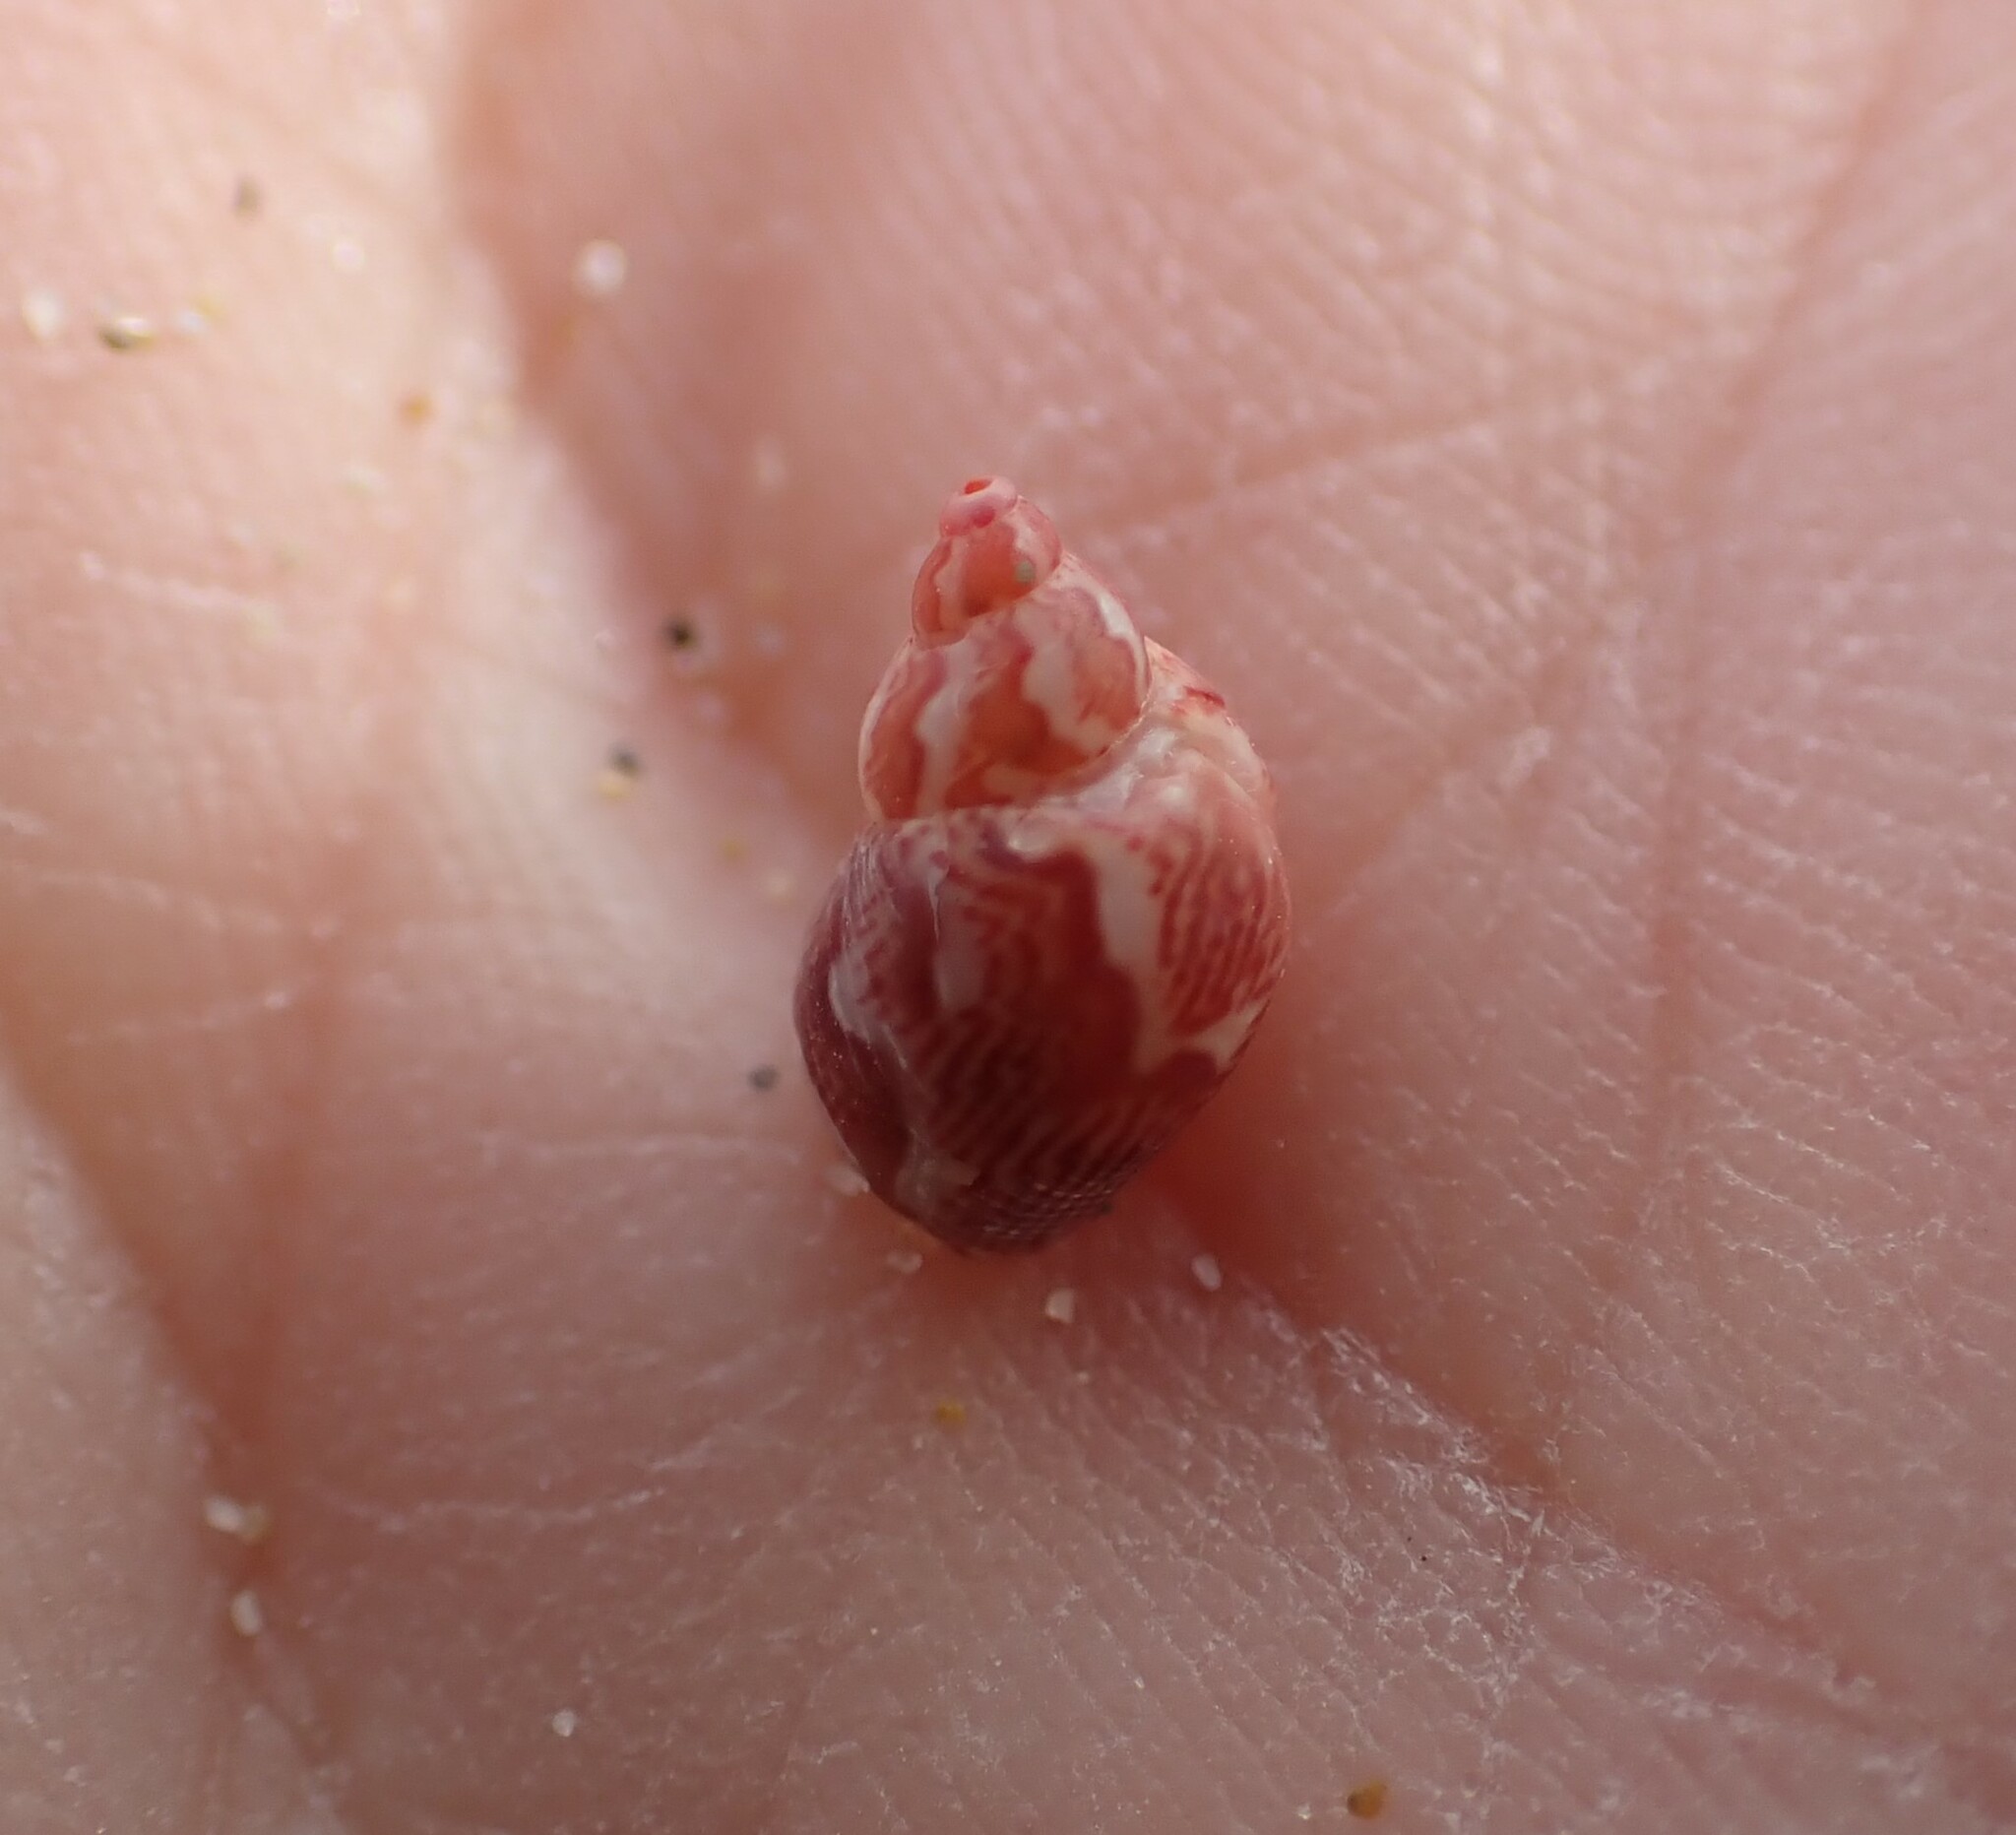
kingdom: Animalia
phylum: Mollusca
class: Gastropoda
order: Trochida
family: Phasianellidae
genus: Tricolia
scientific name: Tricolia pullus
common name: Pheasant shell
